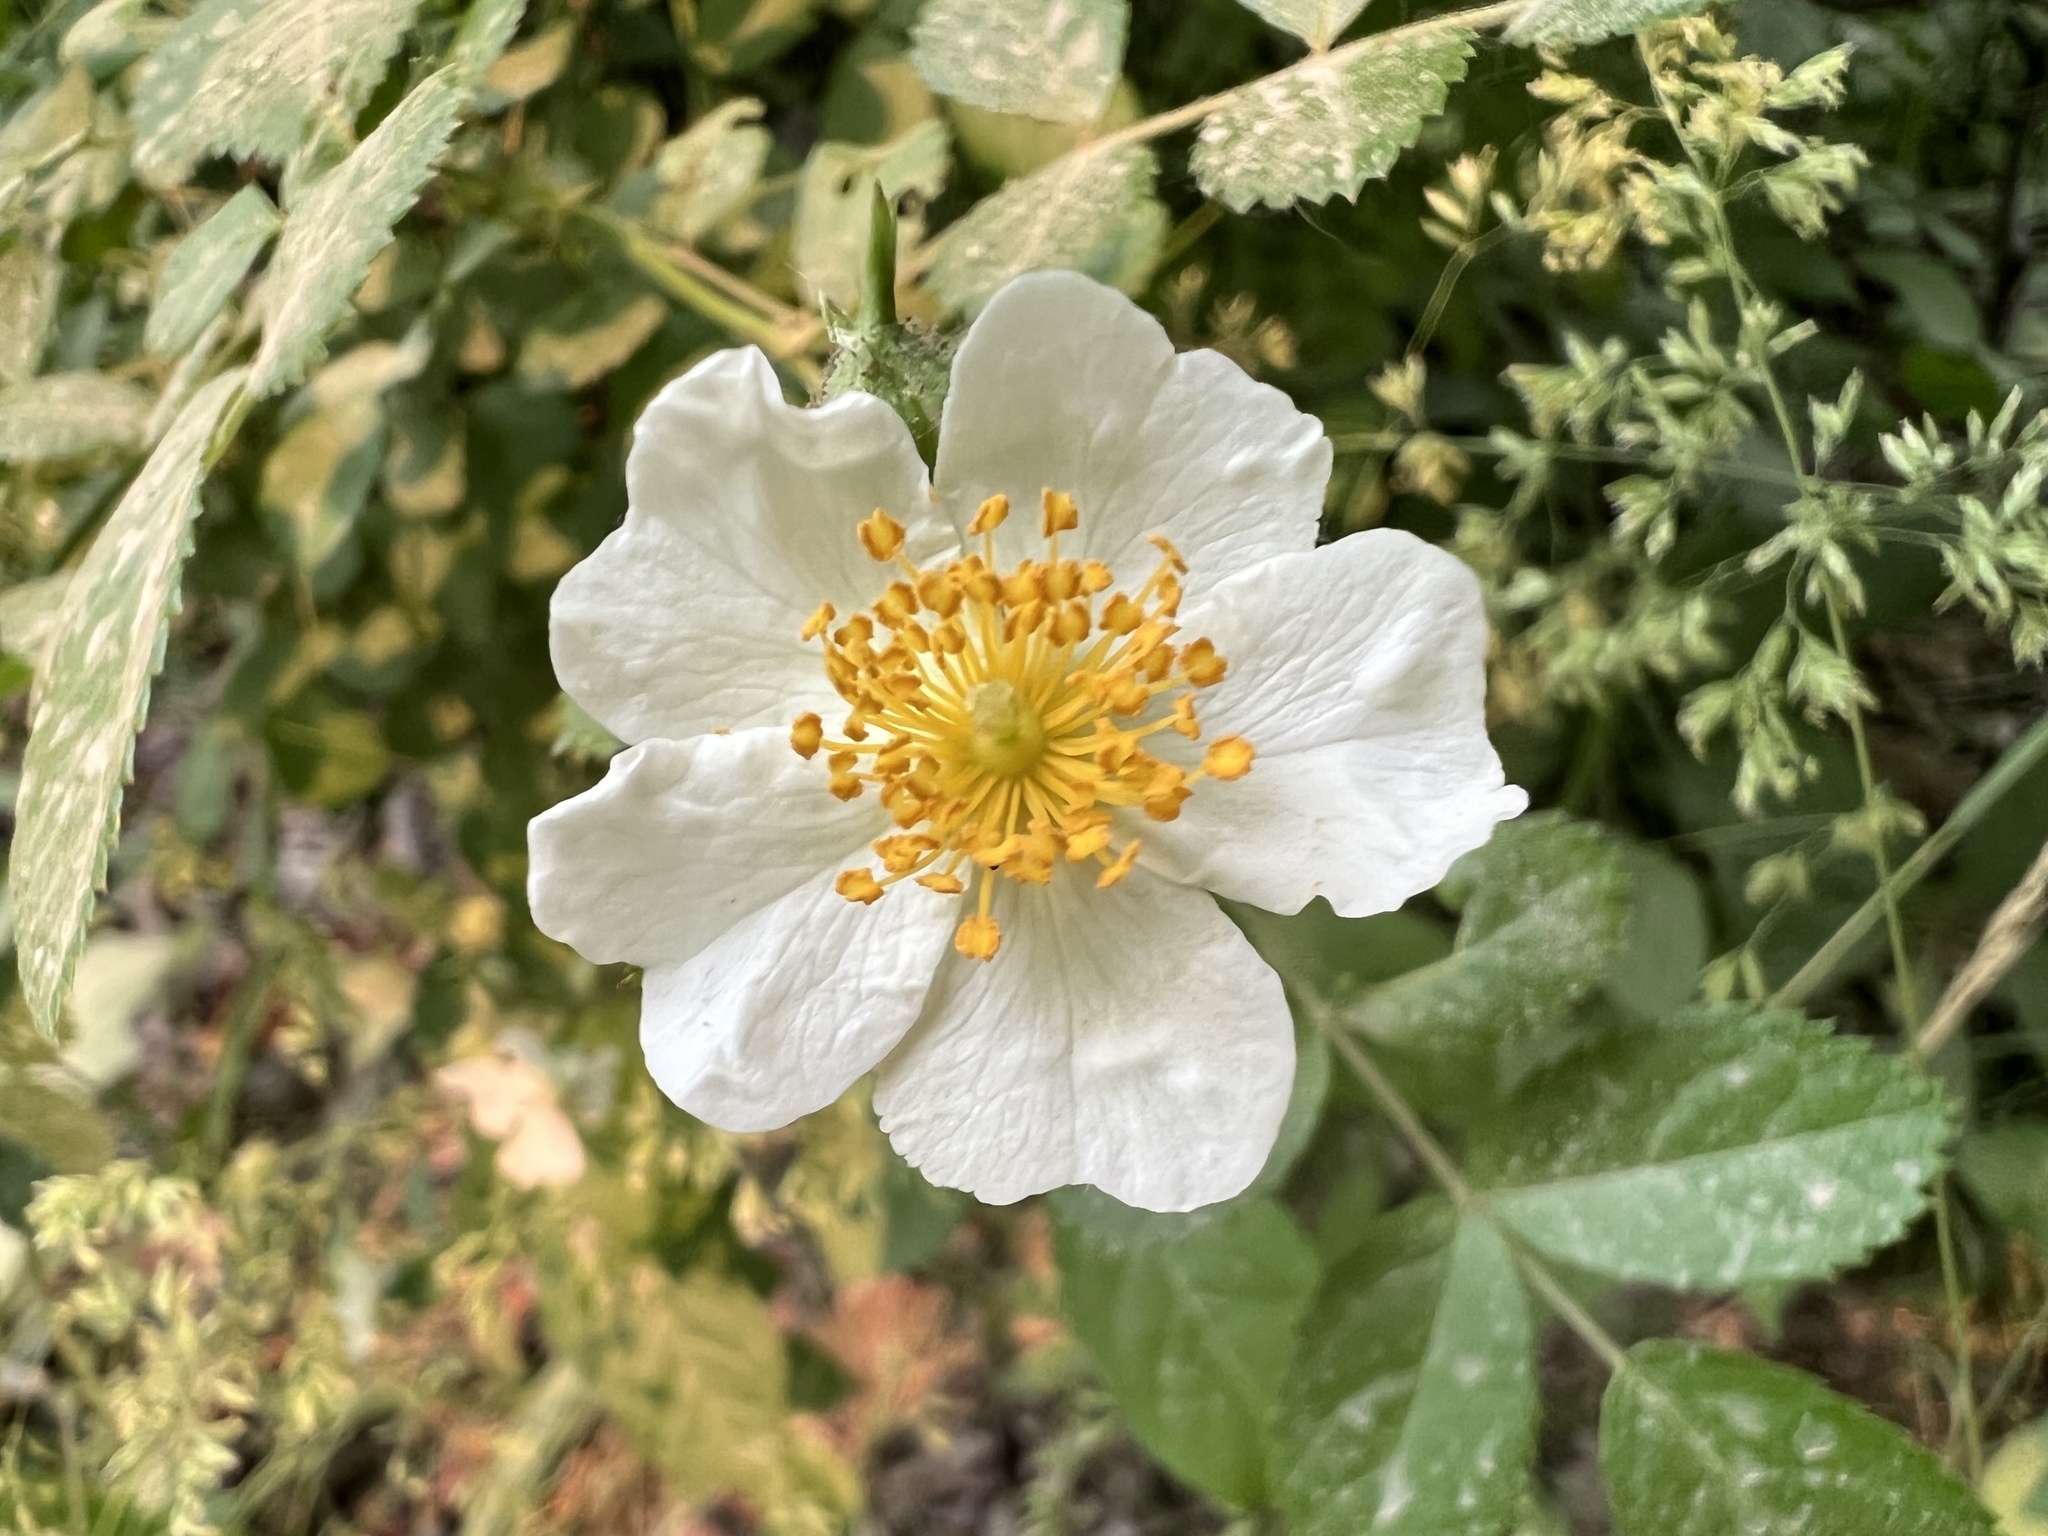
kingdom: Plantae
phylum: Tracheophyta
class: Magnoliopsida
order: Rosales
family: Rosaceae
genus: Rosa
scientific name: Rosa multiflora
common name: Multiflora rose
